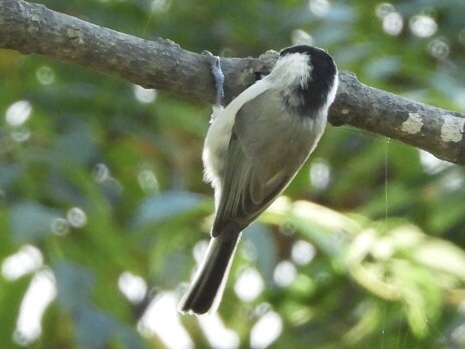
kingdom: Animalia
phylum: Chordata
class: Aves
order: Passeriformes
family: Paridae
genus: Poecile
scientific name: Poecile palustris
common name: Marsh tit
